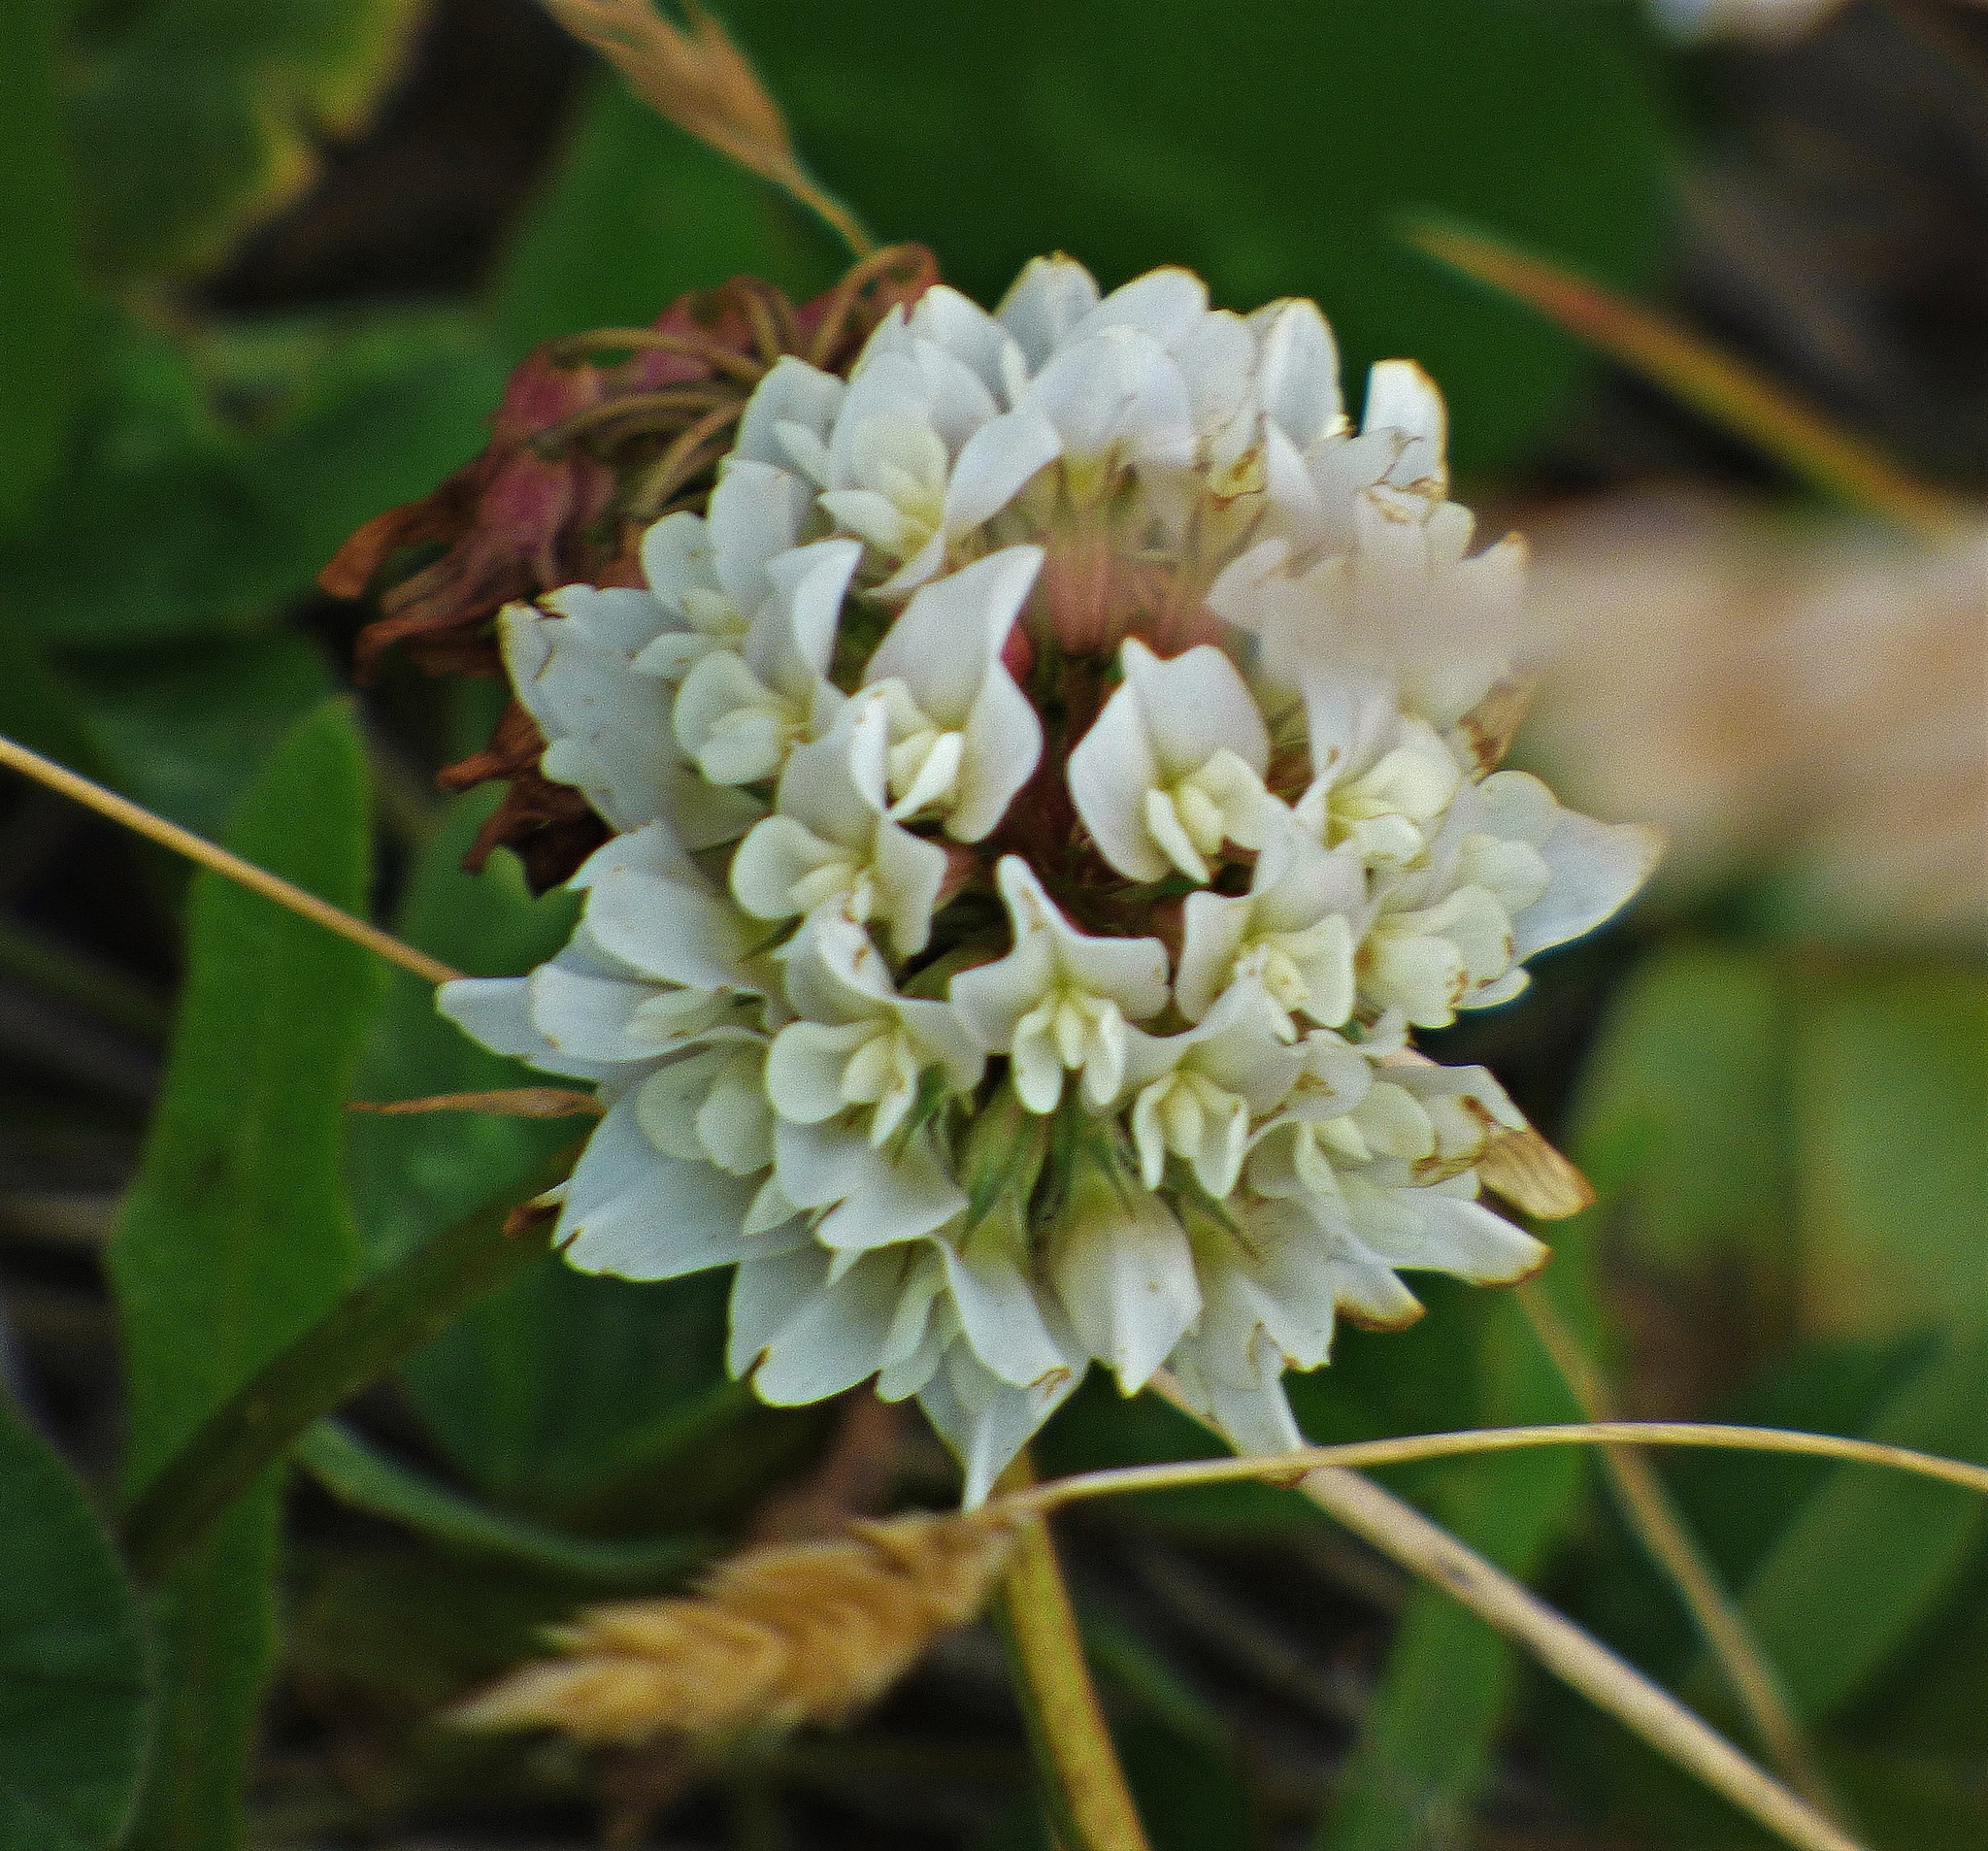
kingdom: Plantae
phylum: Tracheophyta
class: Magnoliopsida
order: Fabales
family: Fabaceae
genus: Trifolium
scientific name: Trifolium repens
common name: White clover
